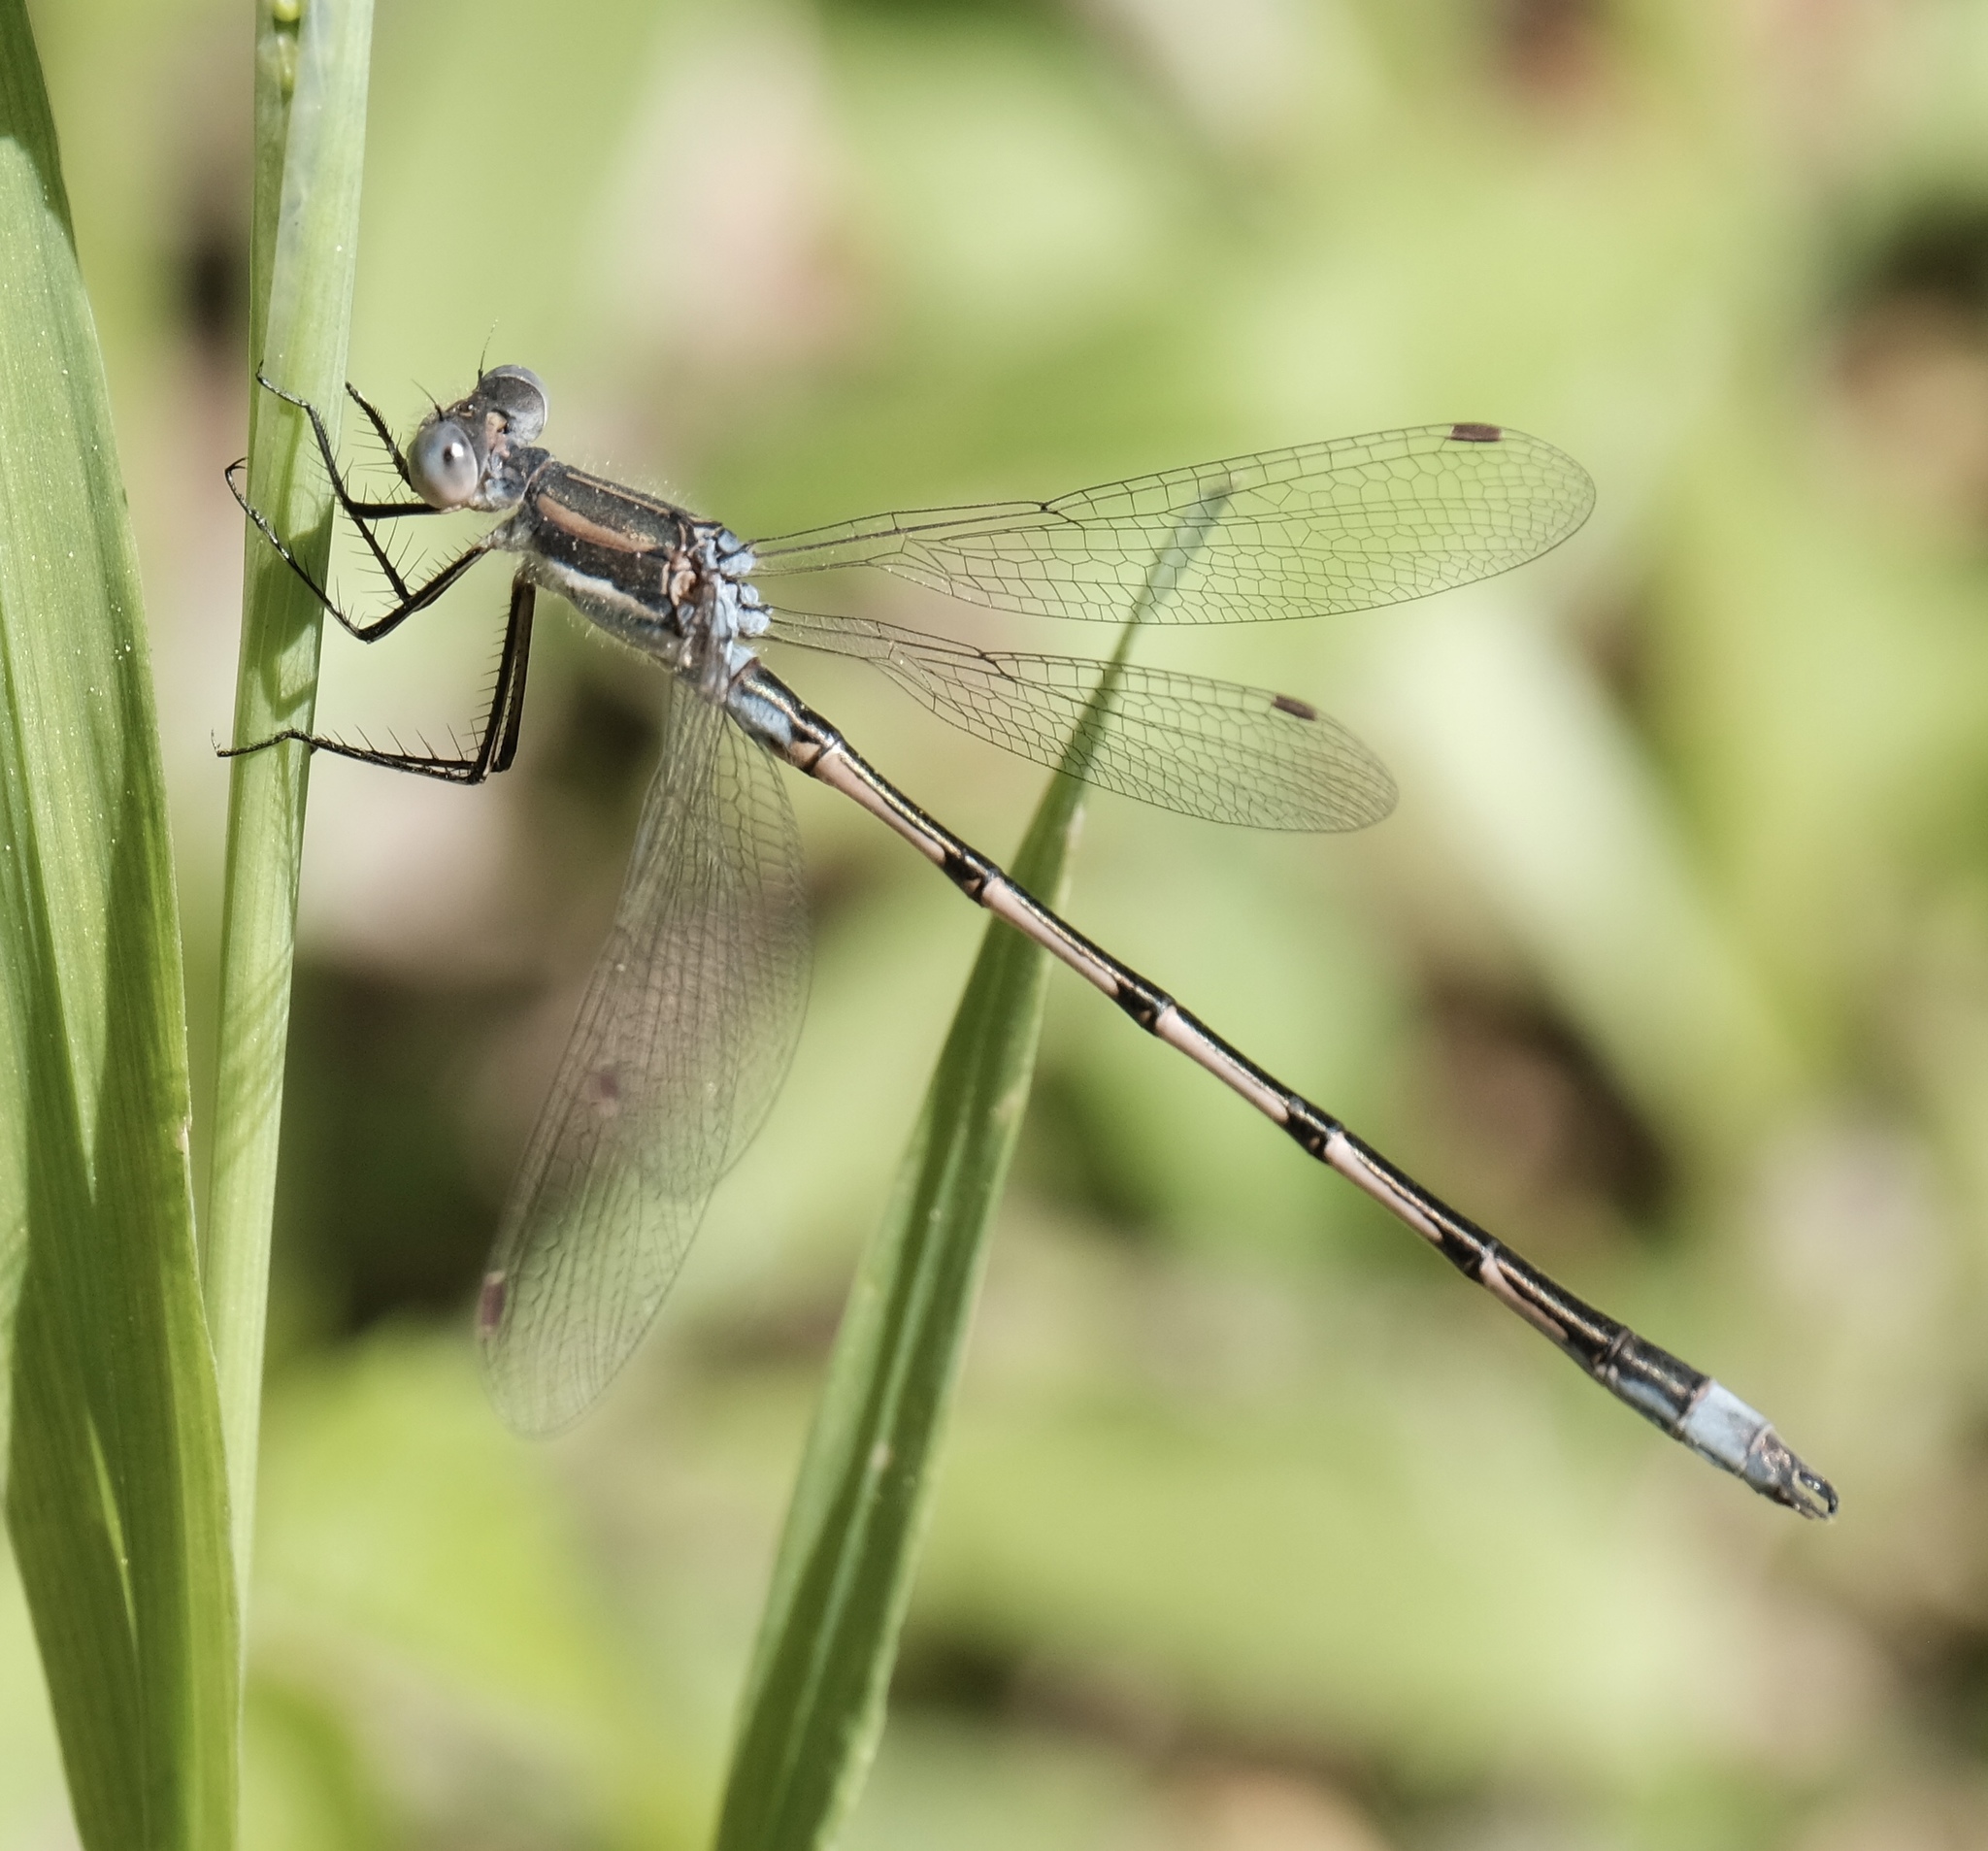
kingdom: Animalia
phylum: Arthropoda
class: Insecta
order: Odonata
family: Lestidae
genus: Lestes
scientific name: Lestes australis
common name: Southern spreadwing
